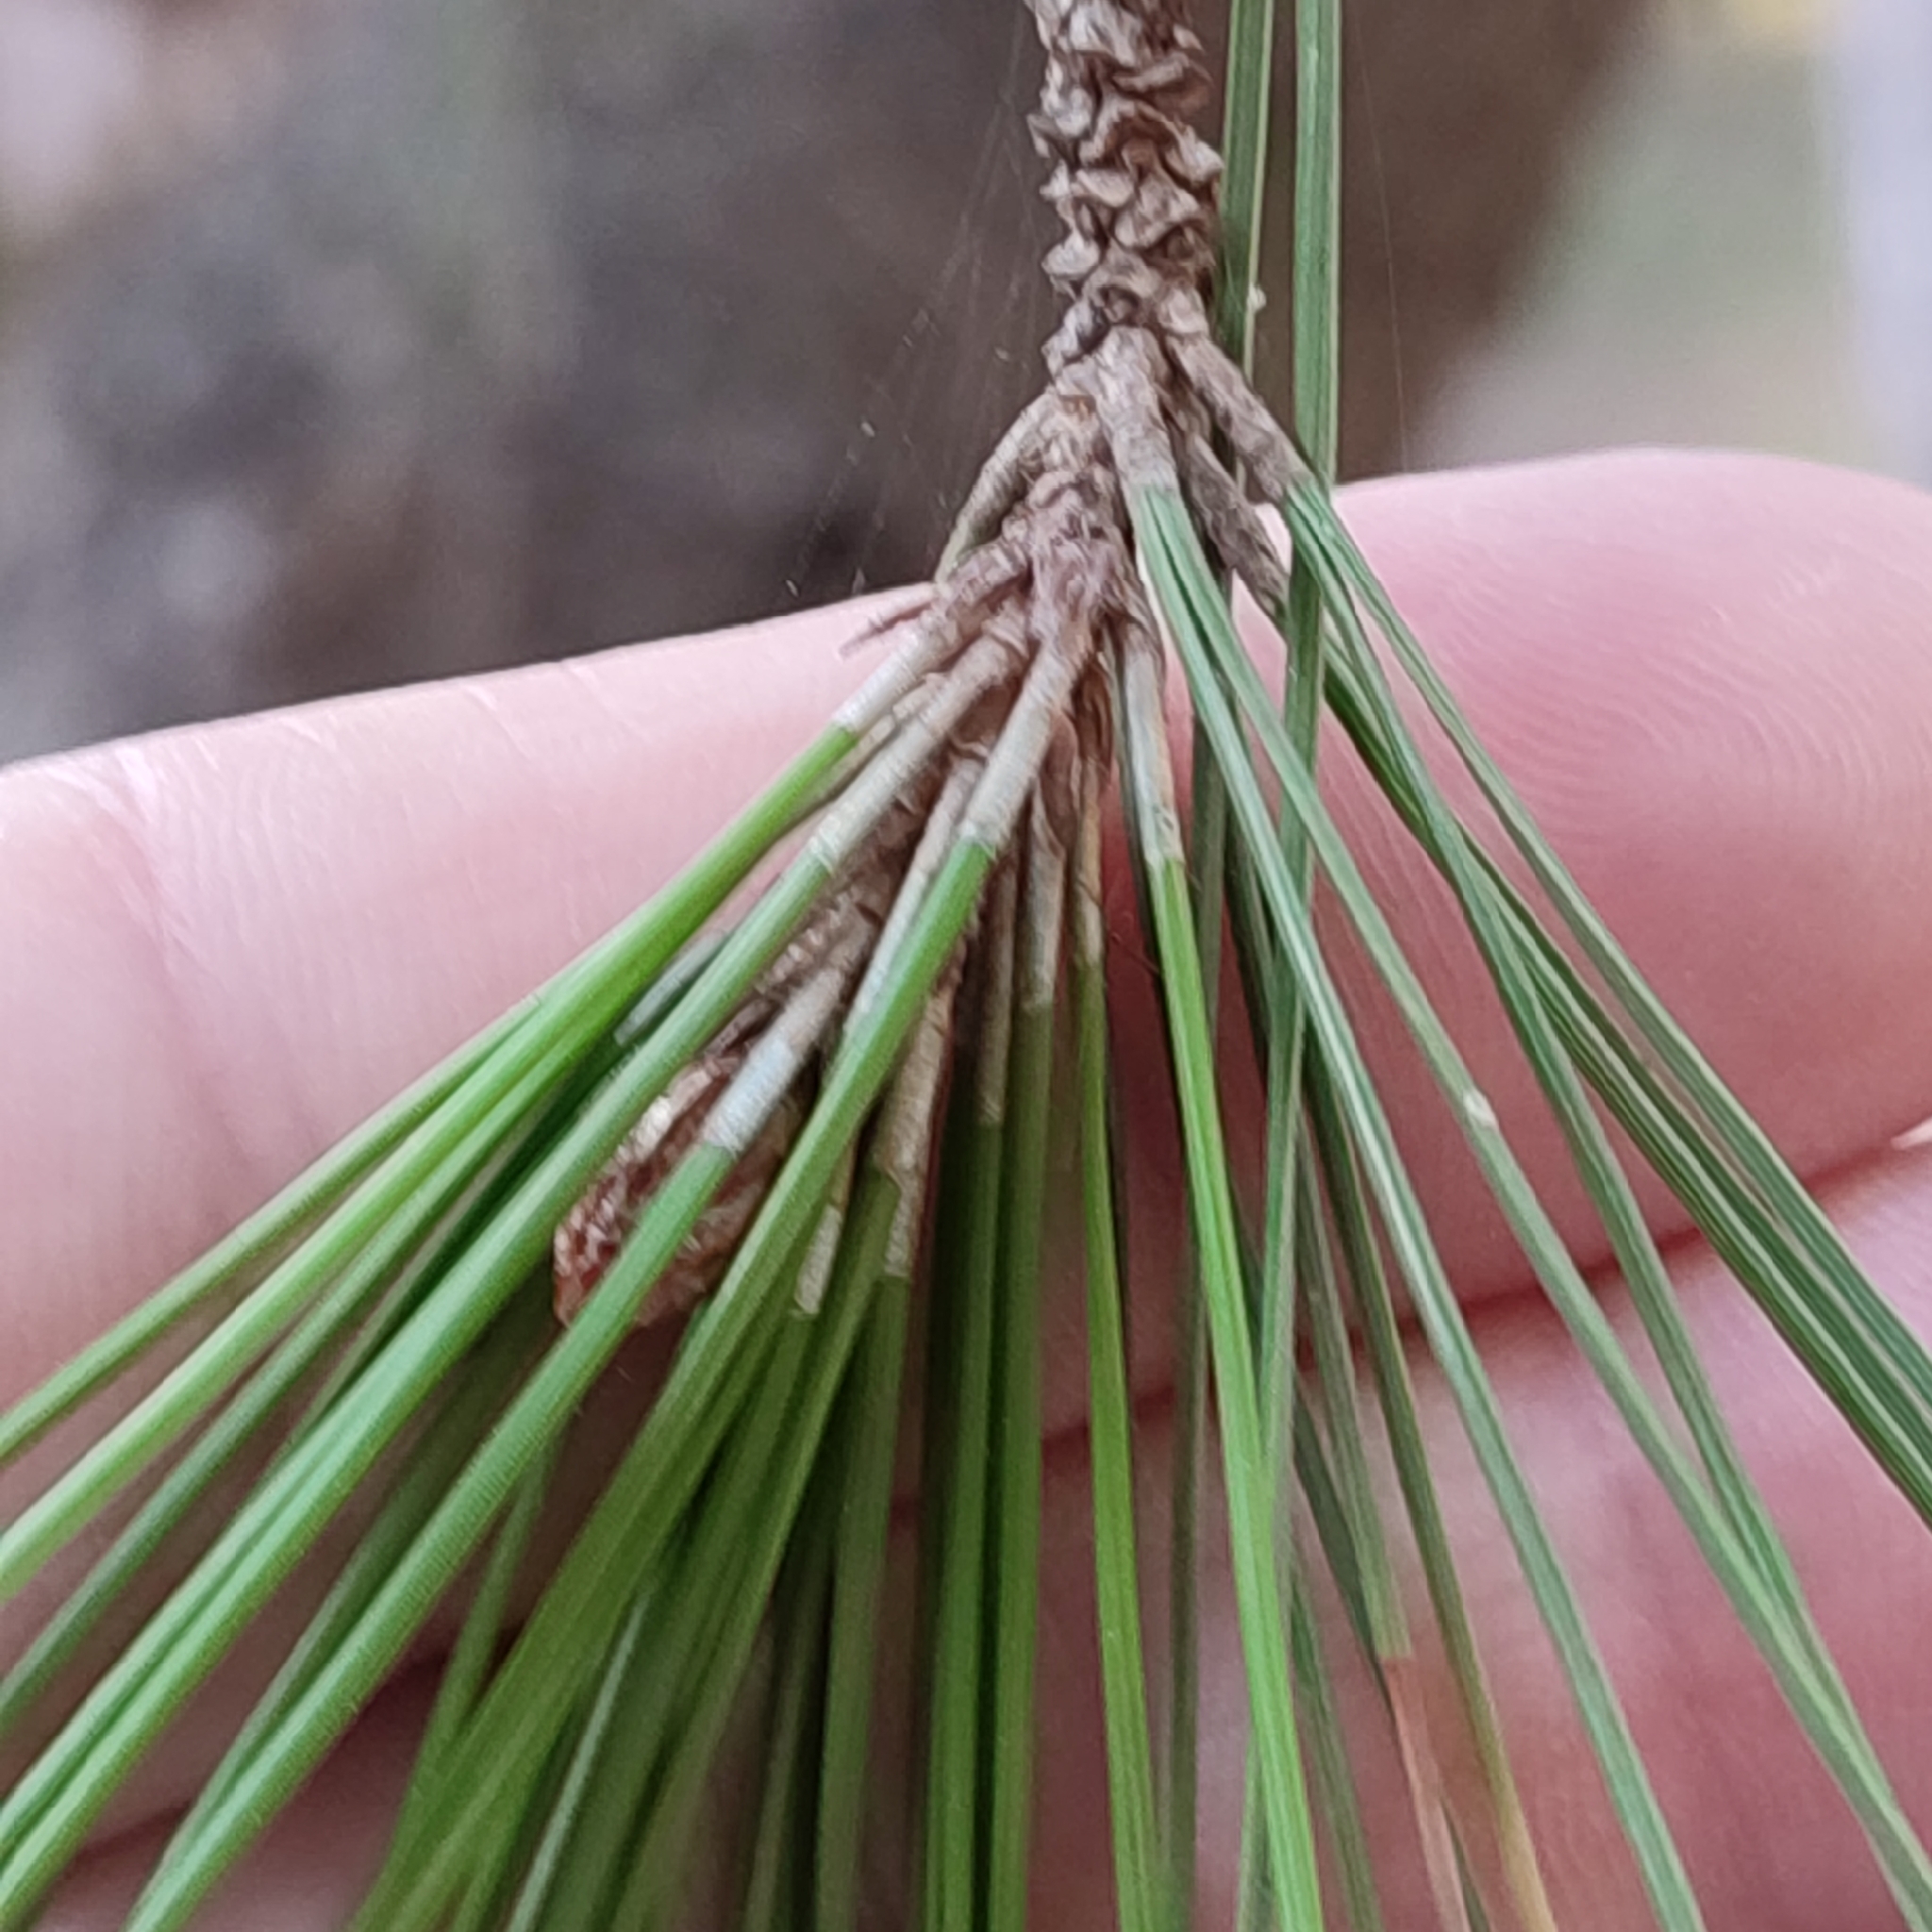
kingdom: Plantae
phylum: Tracheophyta
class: Pinopsida
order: Pinales
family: Pinaceae
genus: Pinus
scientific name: Pinus halepensis
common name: Aleppo pine
